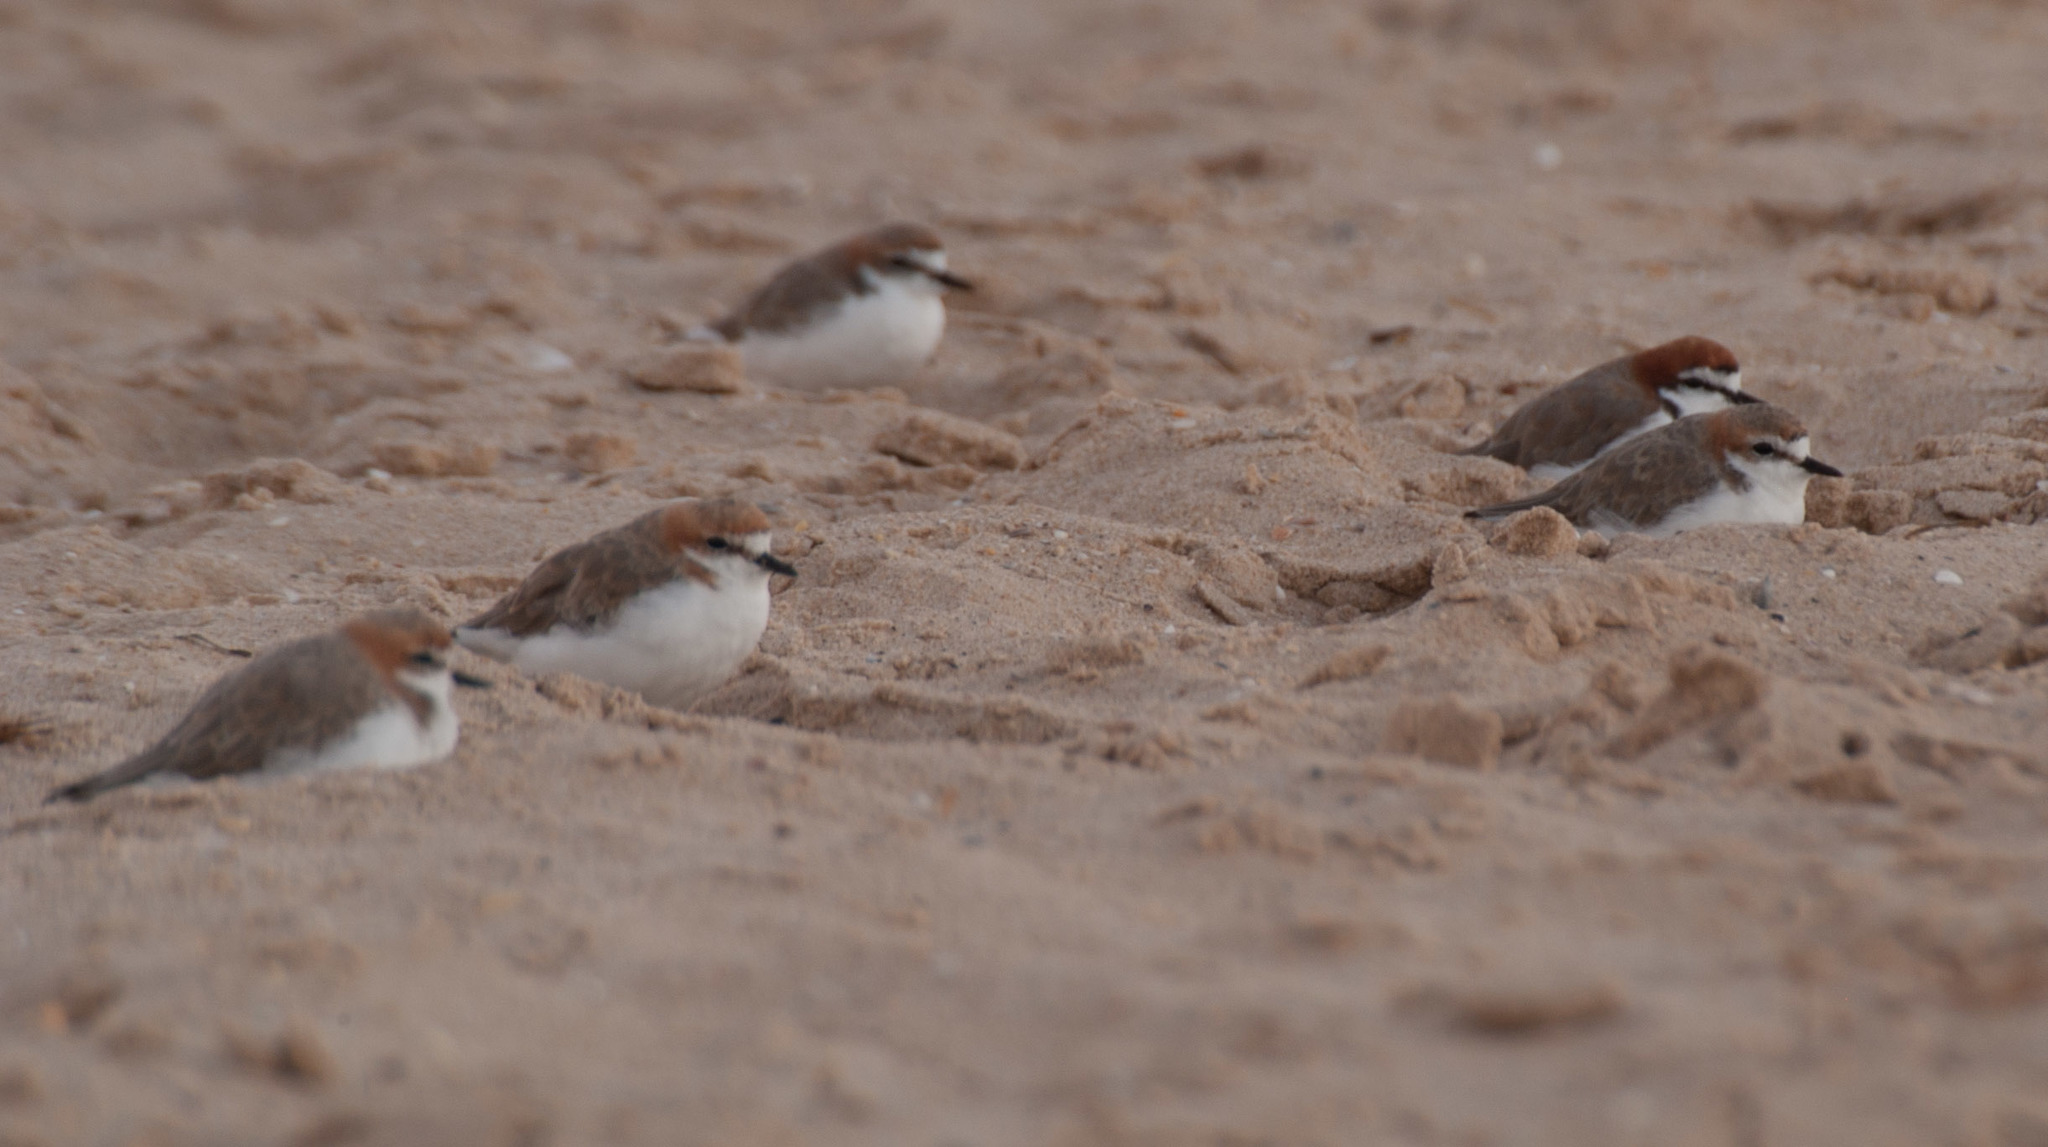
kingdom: Animalia
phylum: Chordata
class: Aves
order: Charadriiformes
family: Charadriidae
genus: Anarhynchus
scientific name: Anarhynchus
